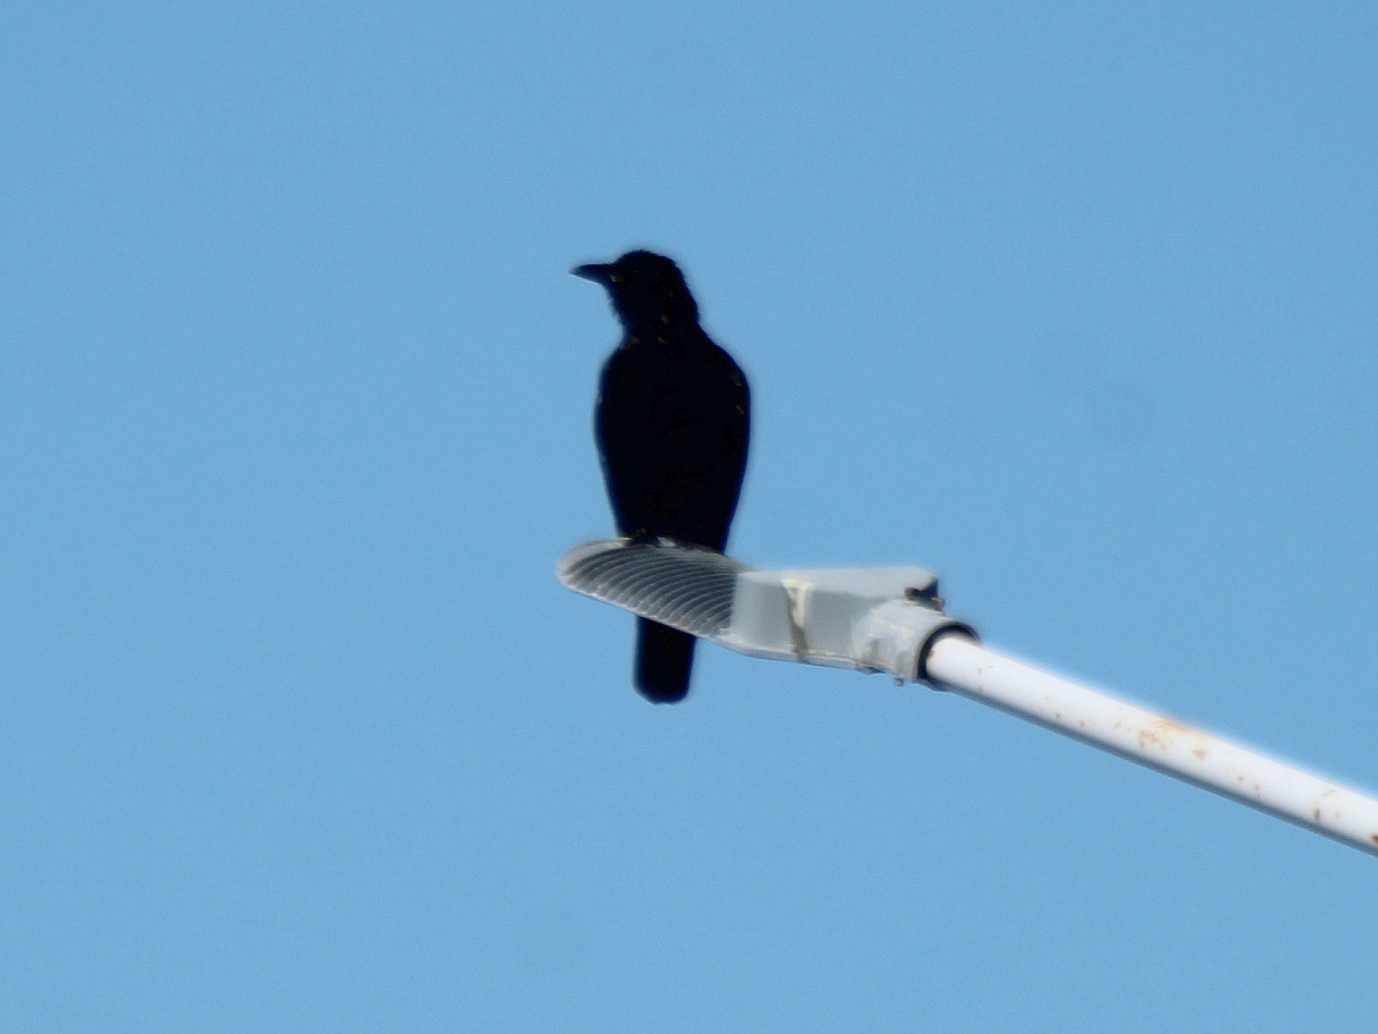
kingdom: Animalia
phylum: Chordata
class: Aves
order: Passeriformes
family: Corvidae
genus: Corvus
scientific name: Corvus corone
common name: Carrion crow
